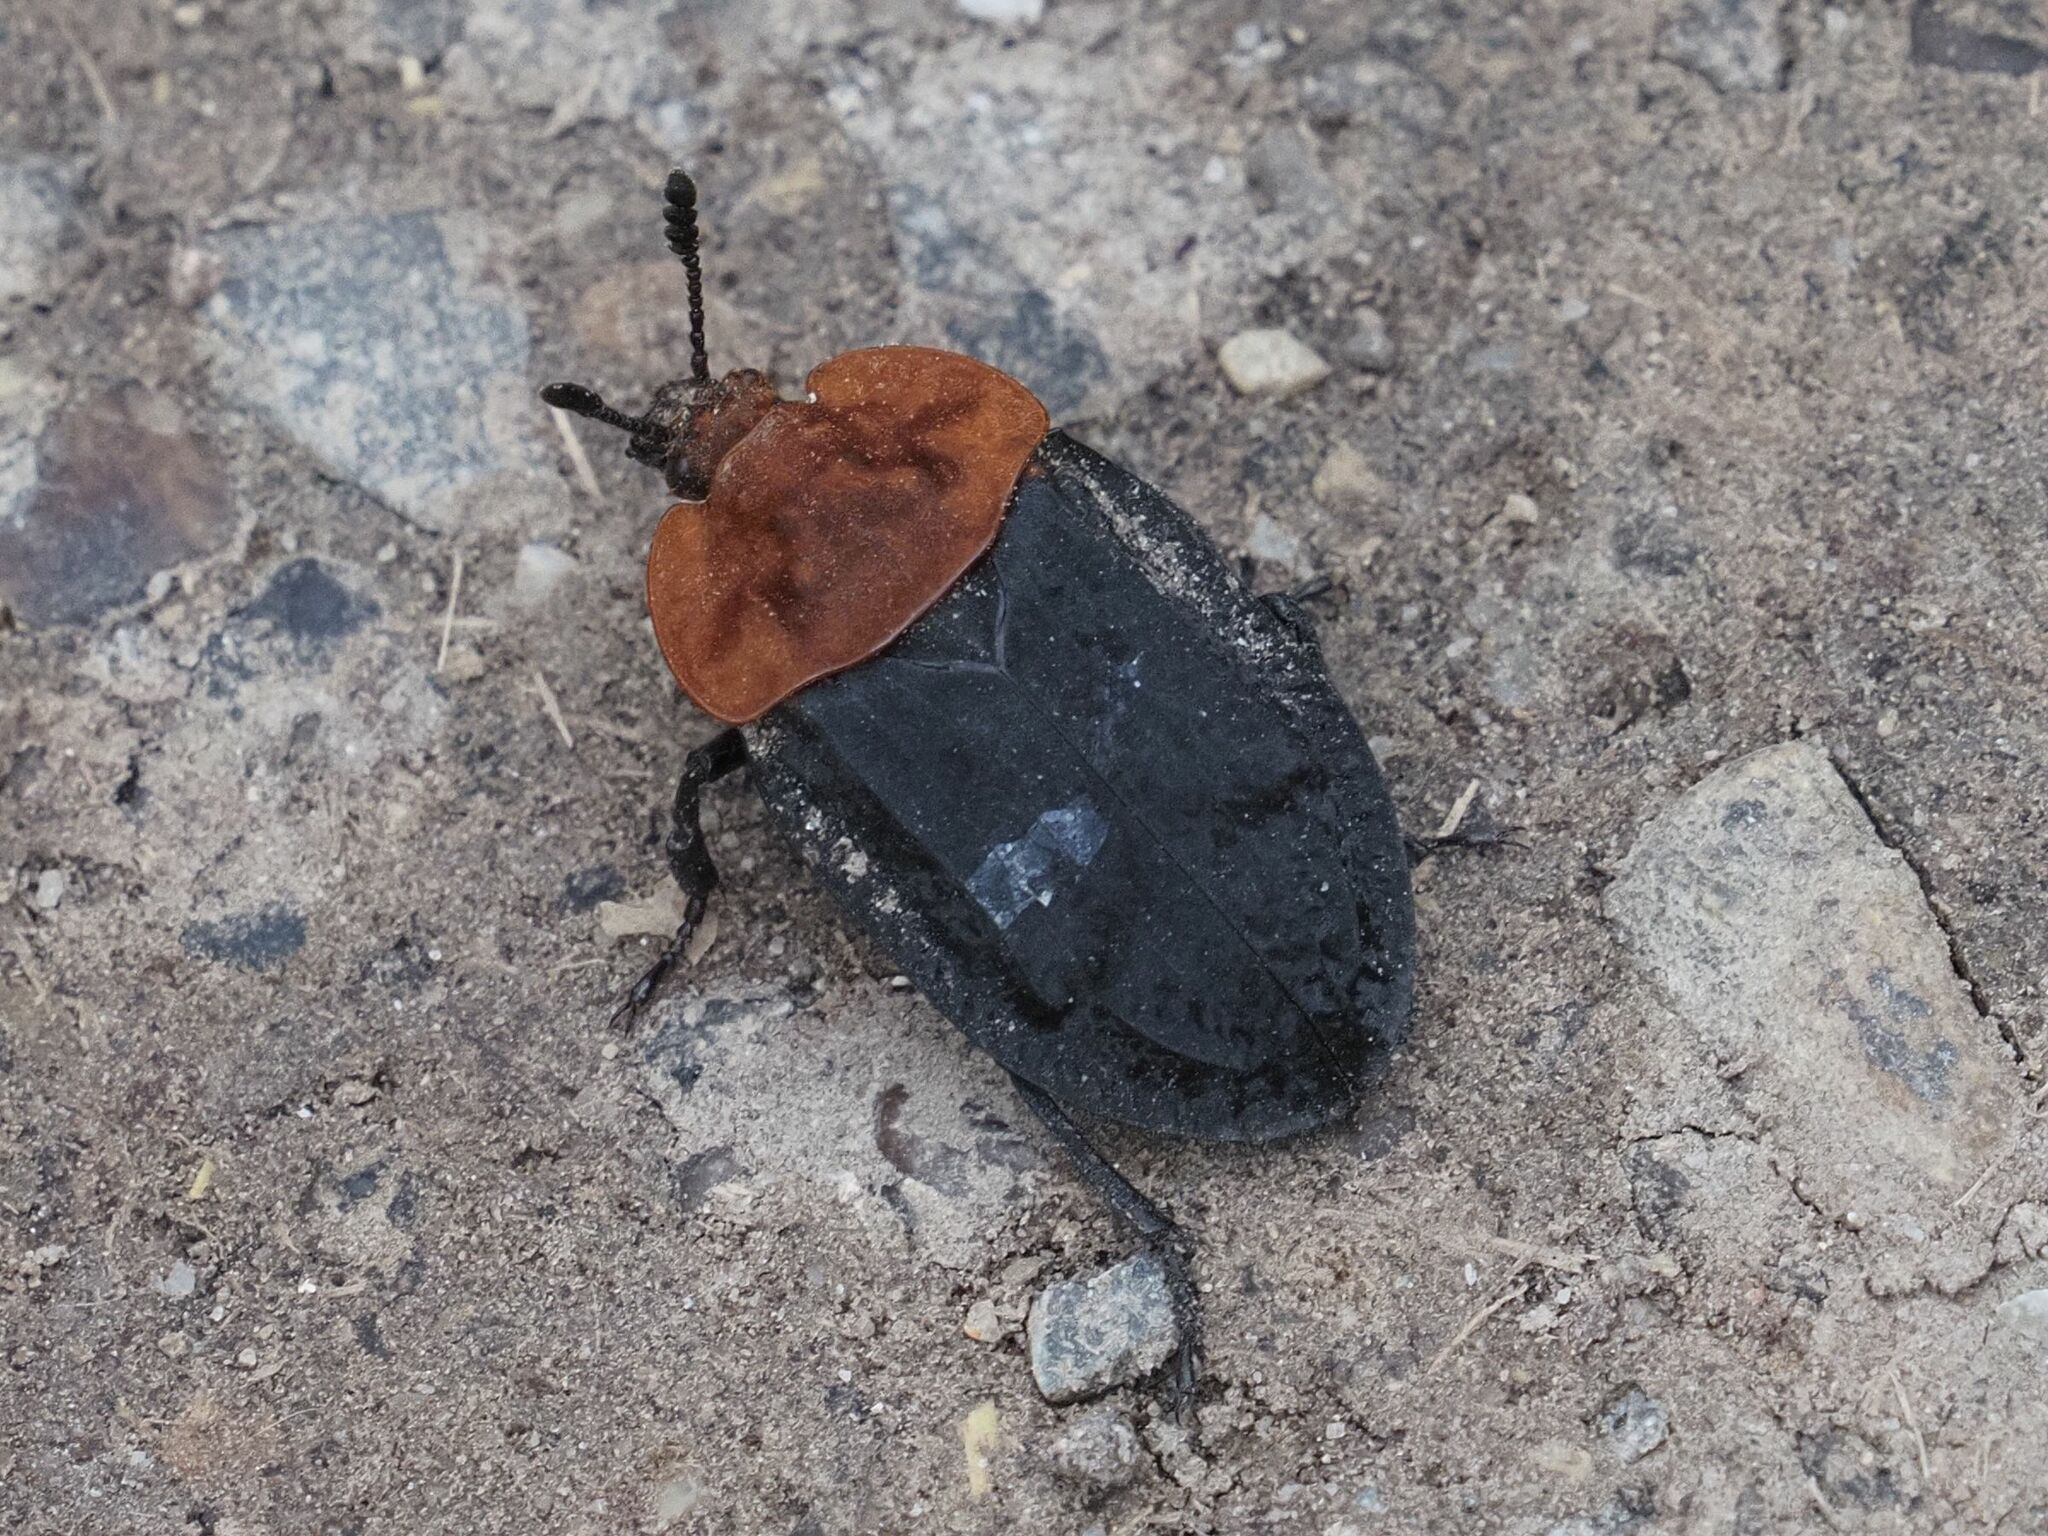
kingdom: Animalia
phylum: Arthropoda
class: Insecta
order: Coleoptera
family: Staphylinidae
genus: Oiceoptoma
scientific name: Oiceoptoma thoracicum
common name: Red-breasted carrion beetle
